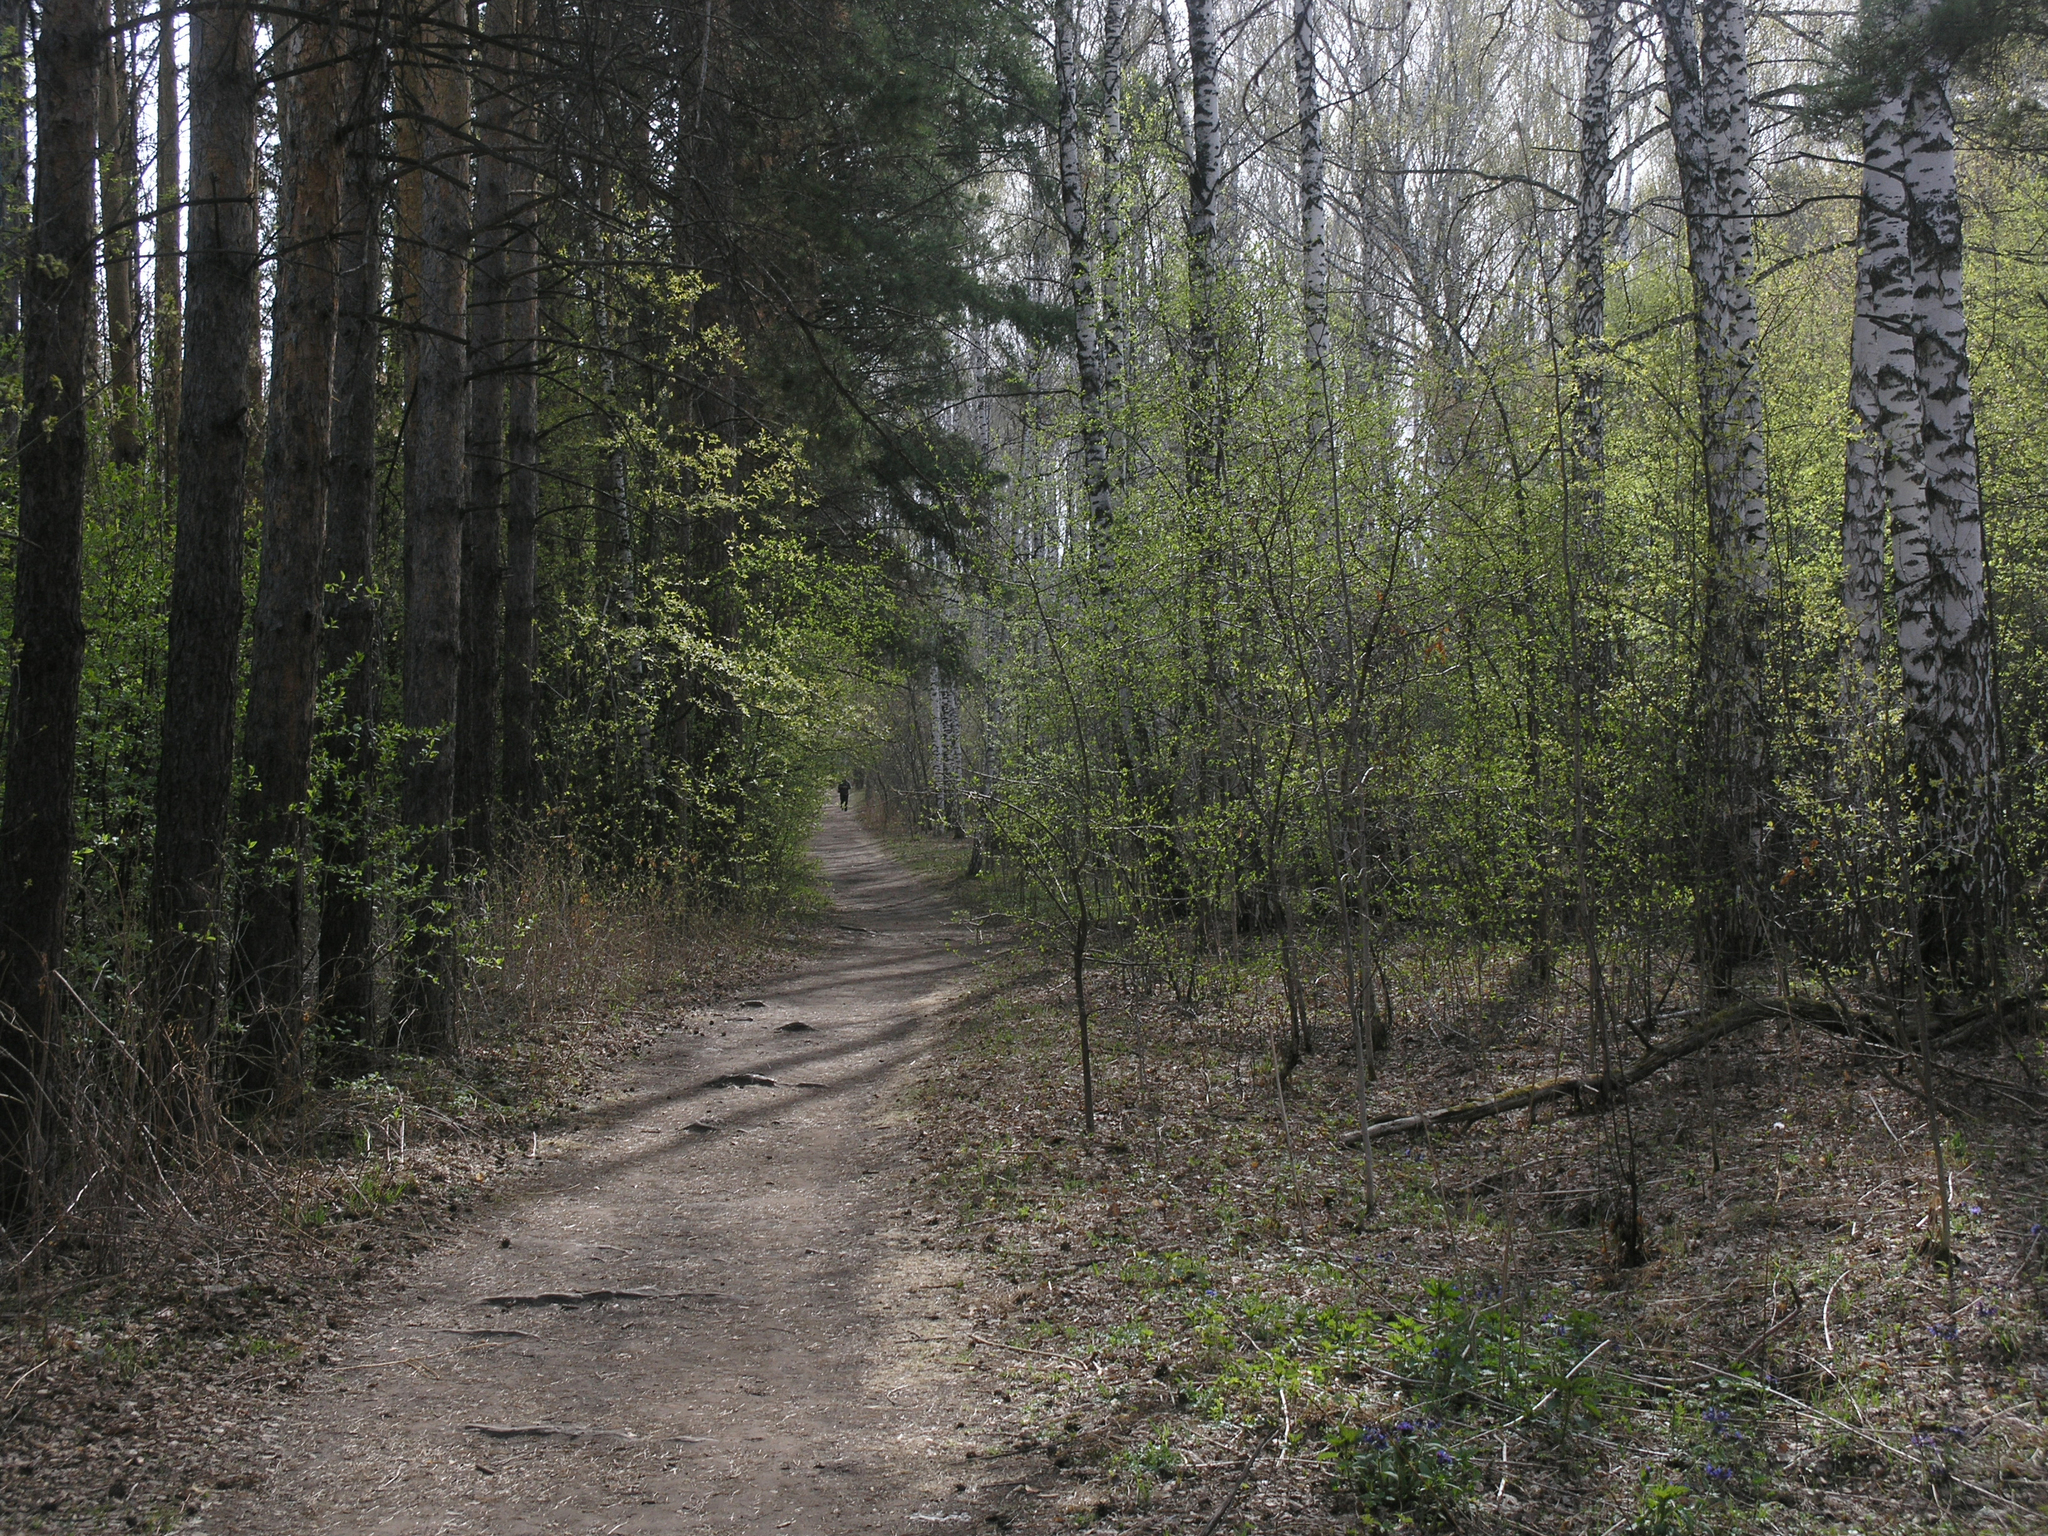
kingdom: Plantae
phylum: Tracheophyta
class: Magnoliopsida
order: Fagales
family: Betulaceae
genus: Betula
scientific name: Betula pendula
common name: Silver birch
